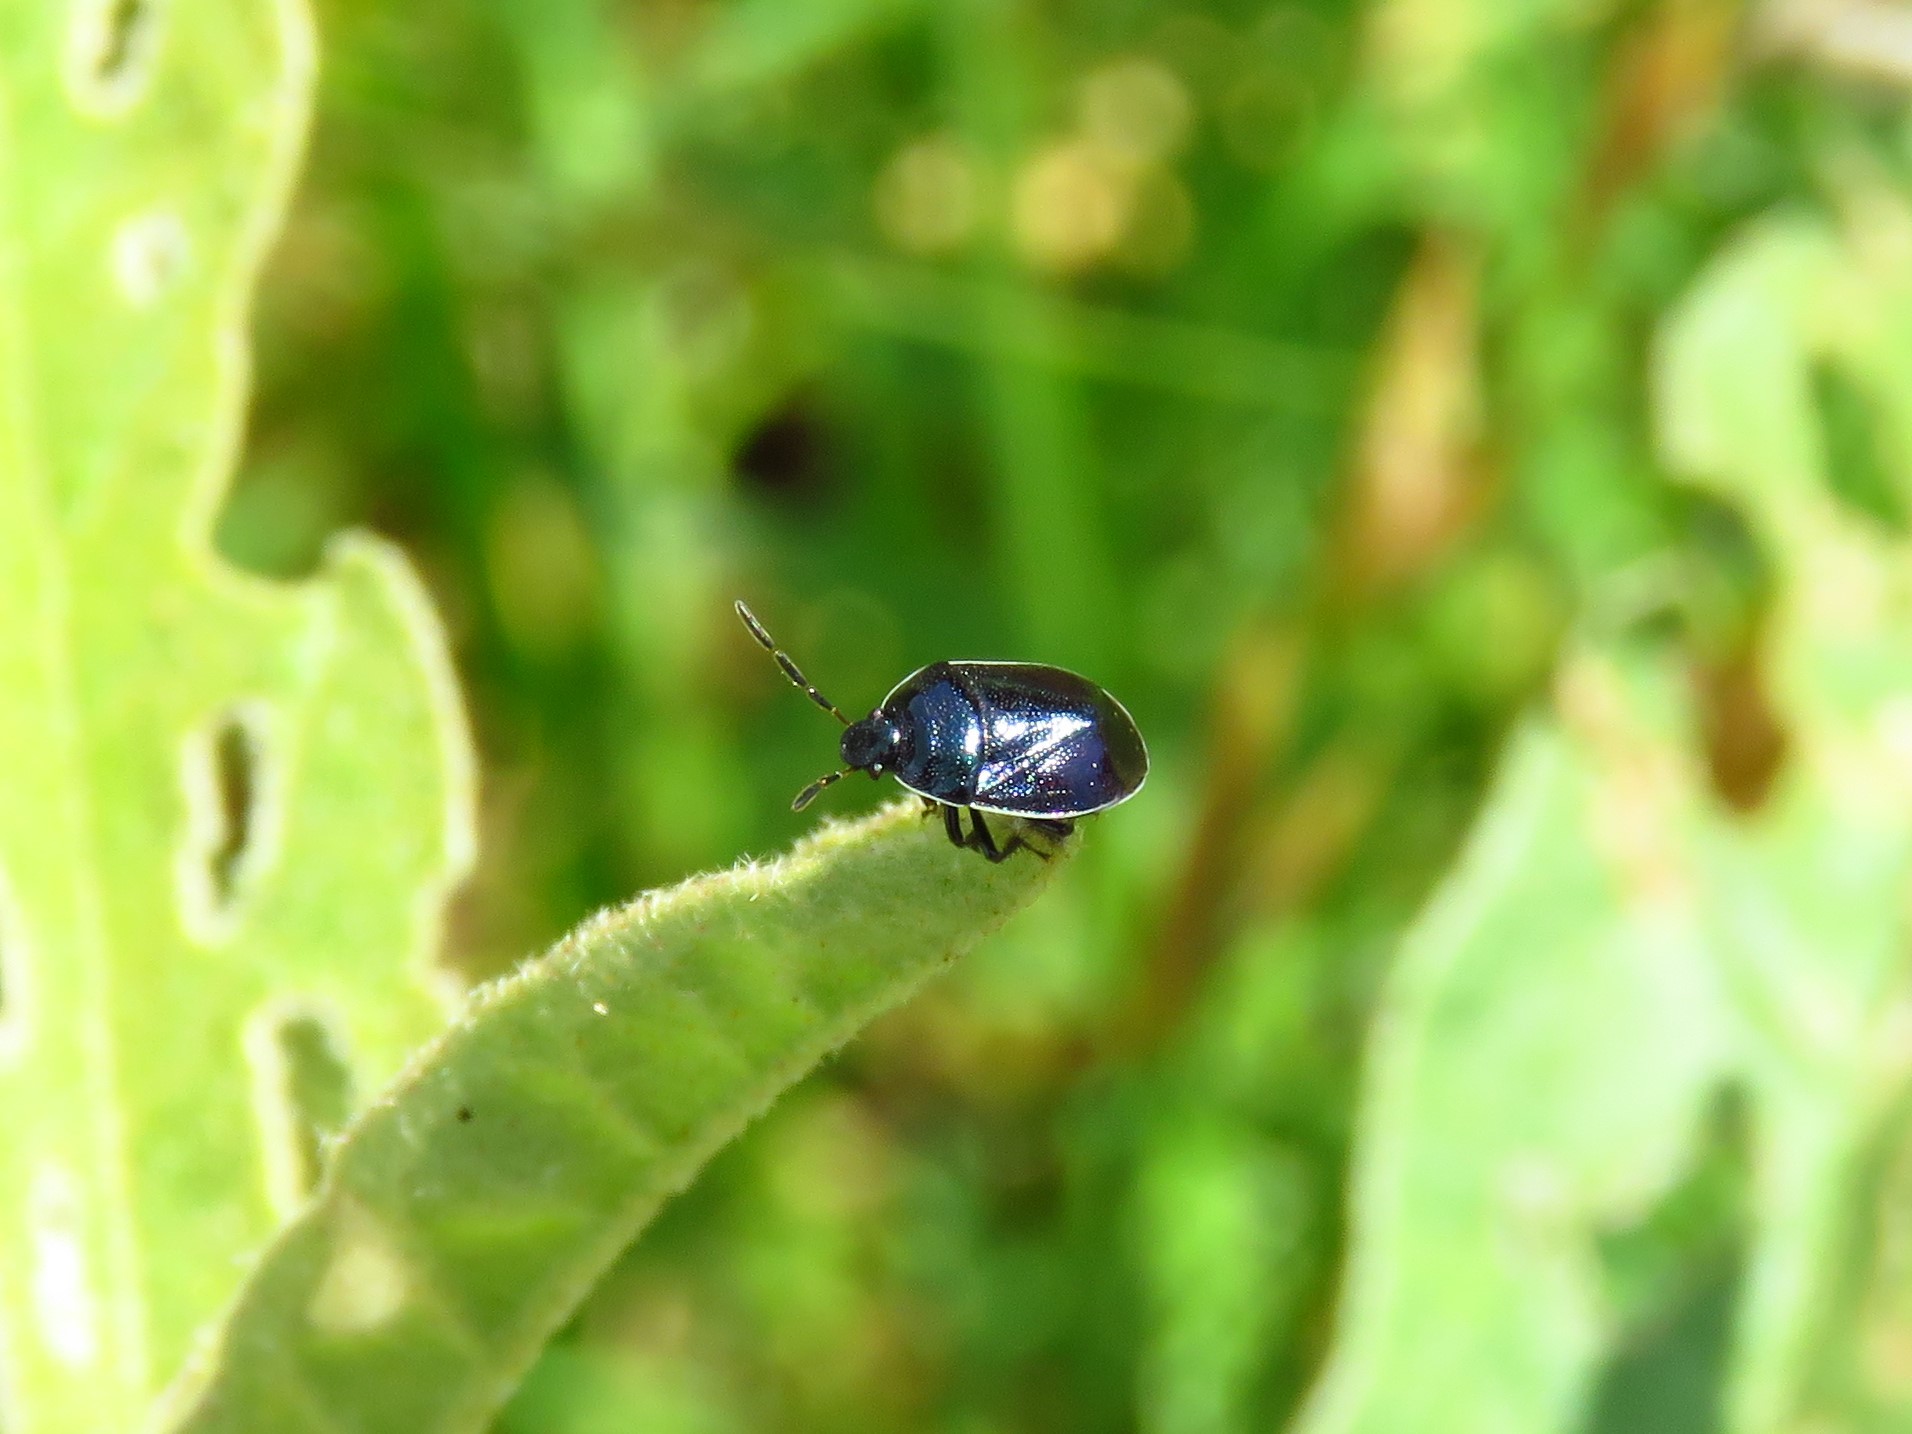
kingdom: Animalia
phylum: Arthropoda
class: Insecta
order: Hemiptera
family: Cydnidae
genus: Sehirus
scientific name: Sehirus cinctus
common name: White-margined burrower bug
